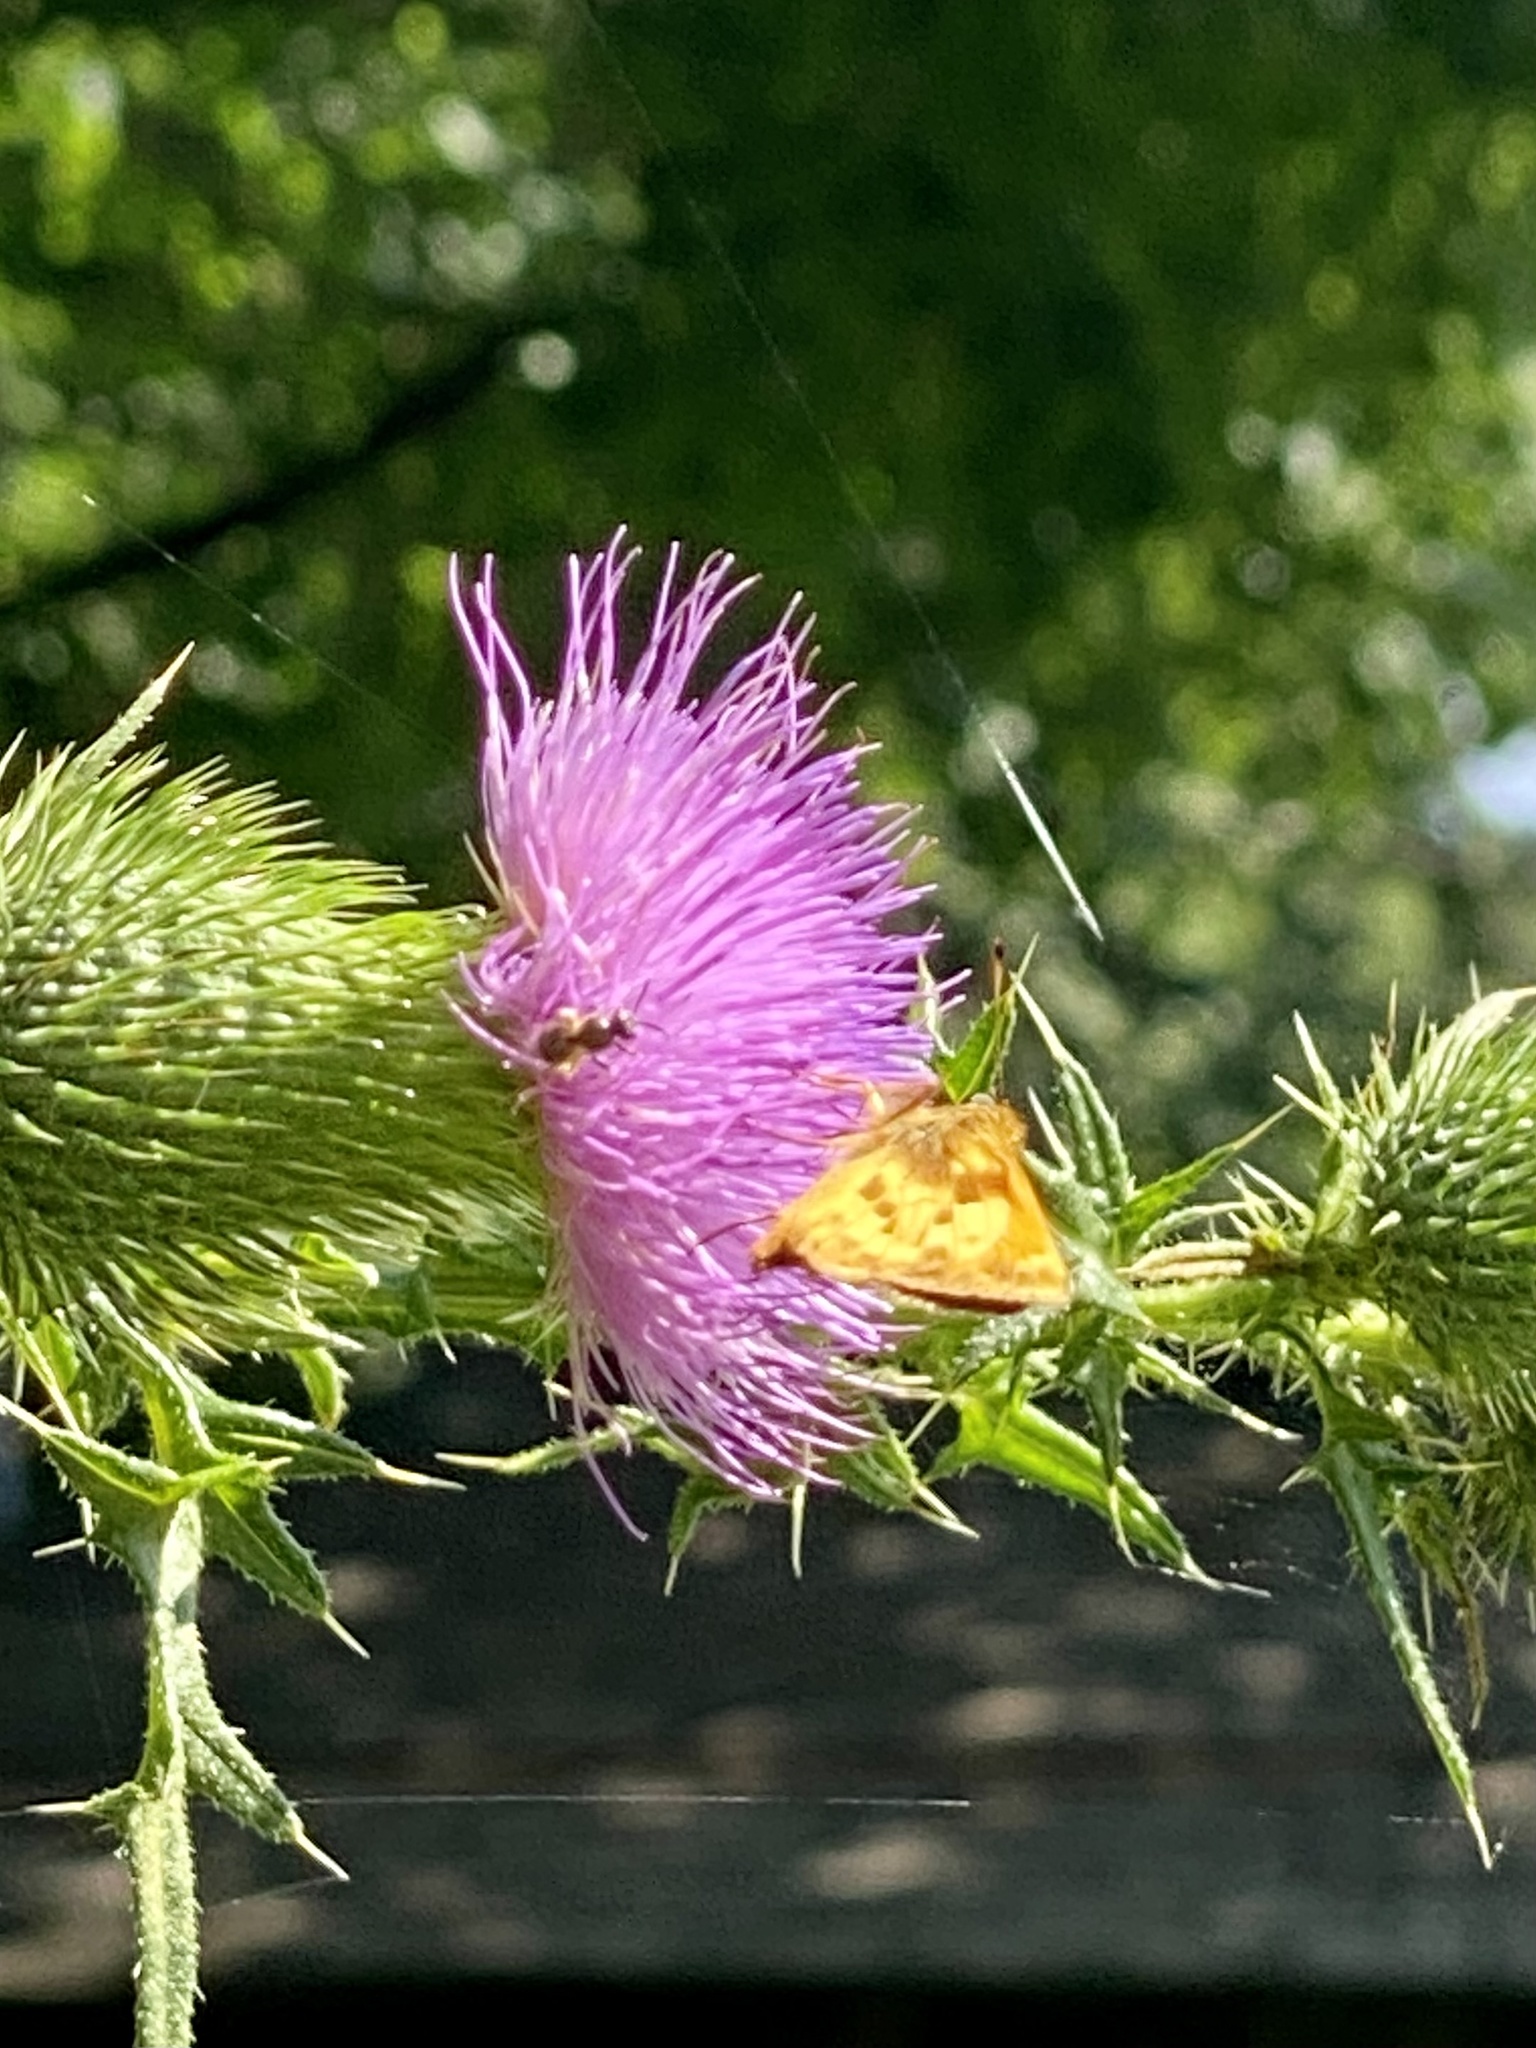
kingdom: Animalia
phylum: Arthropoda
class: Insecta
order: Lepidoptera
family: Hesperiidae
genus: Lon
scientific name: Lon zabulon
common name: Zabulon skipper
